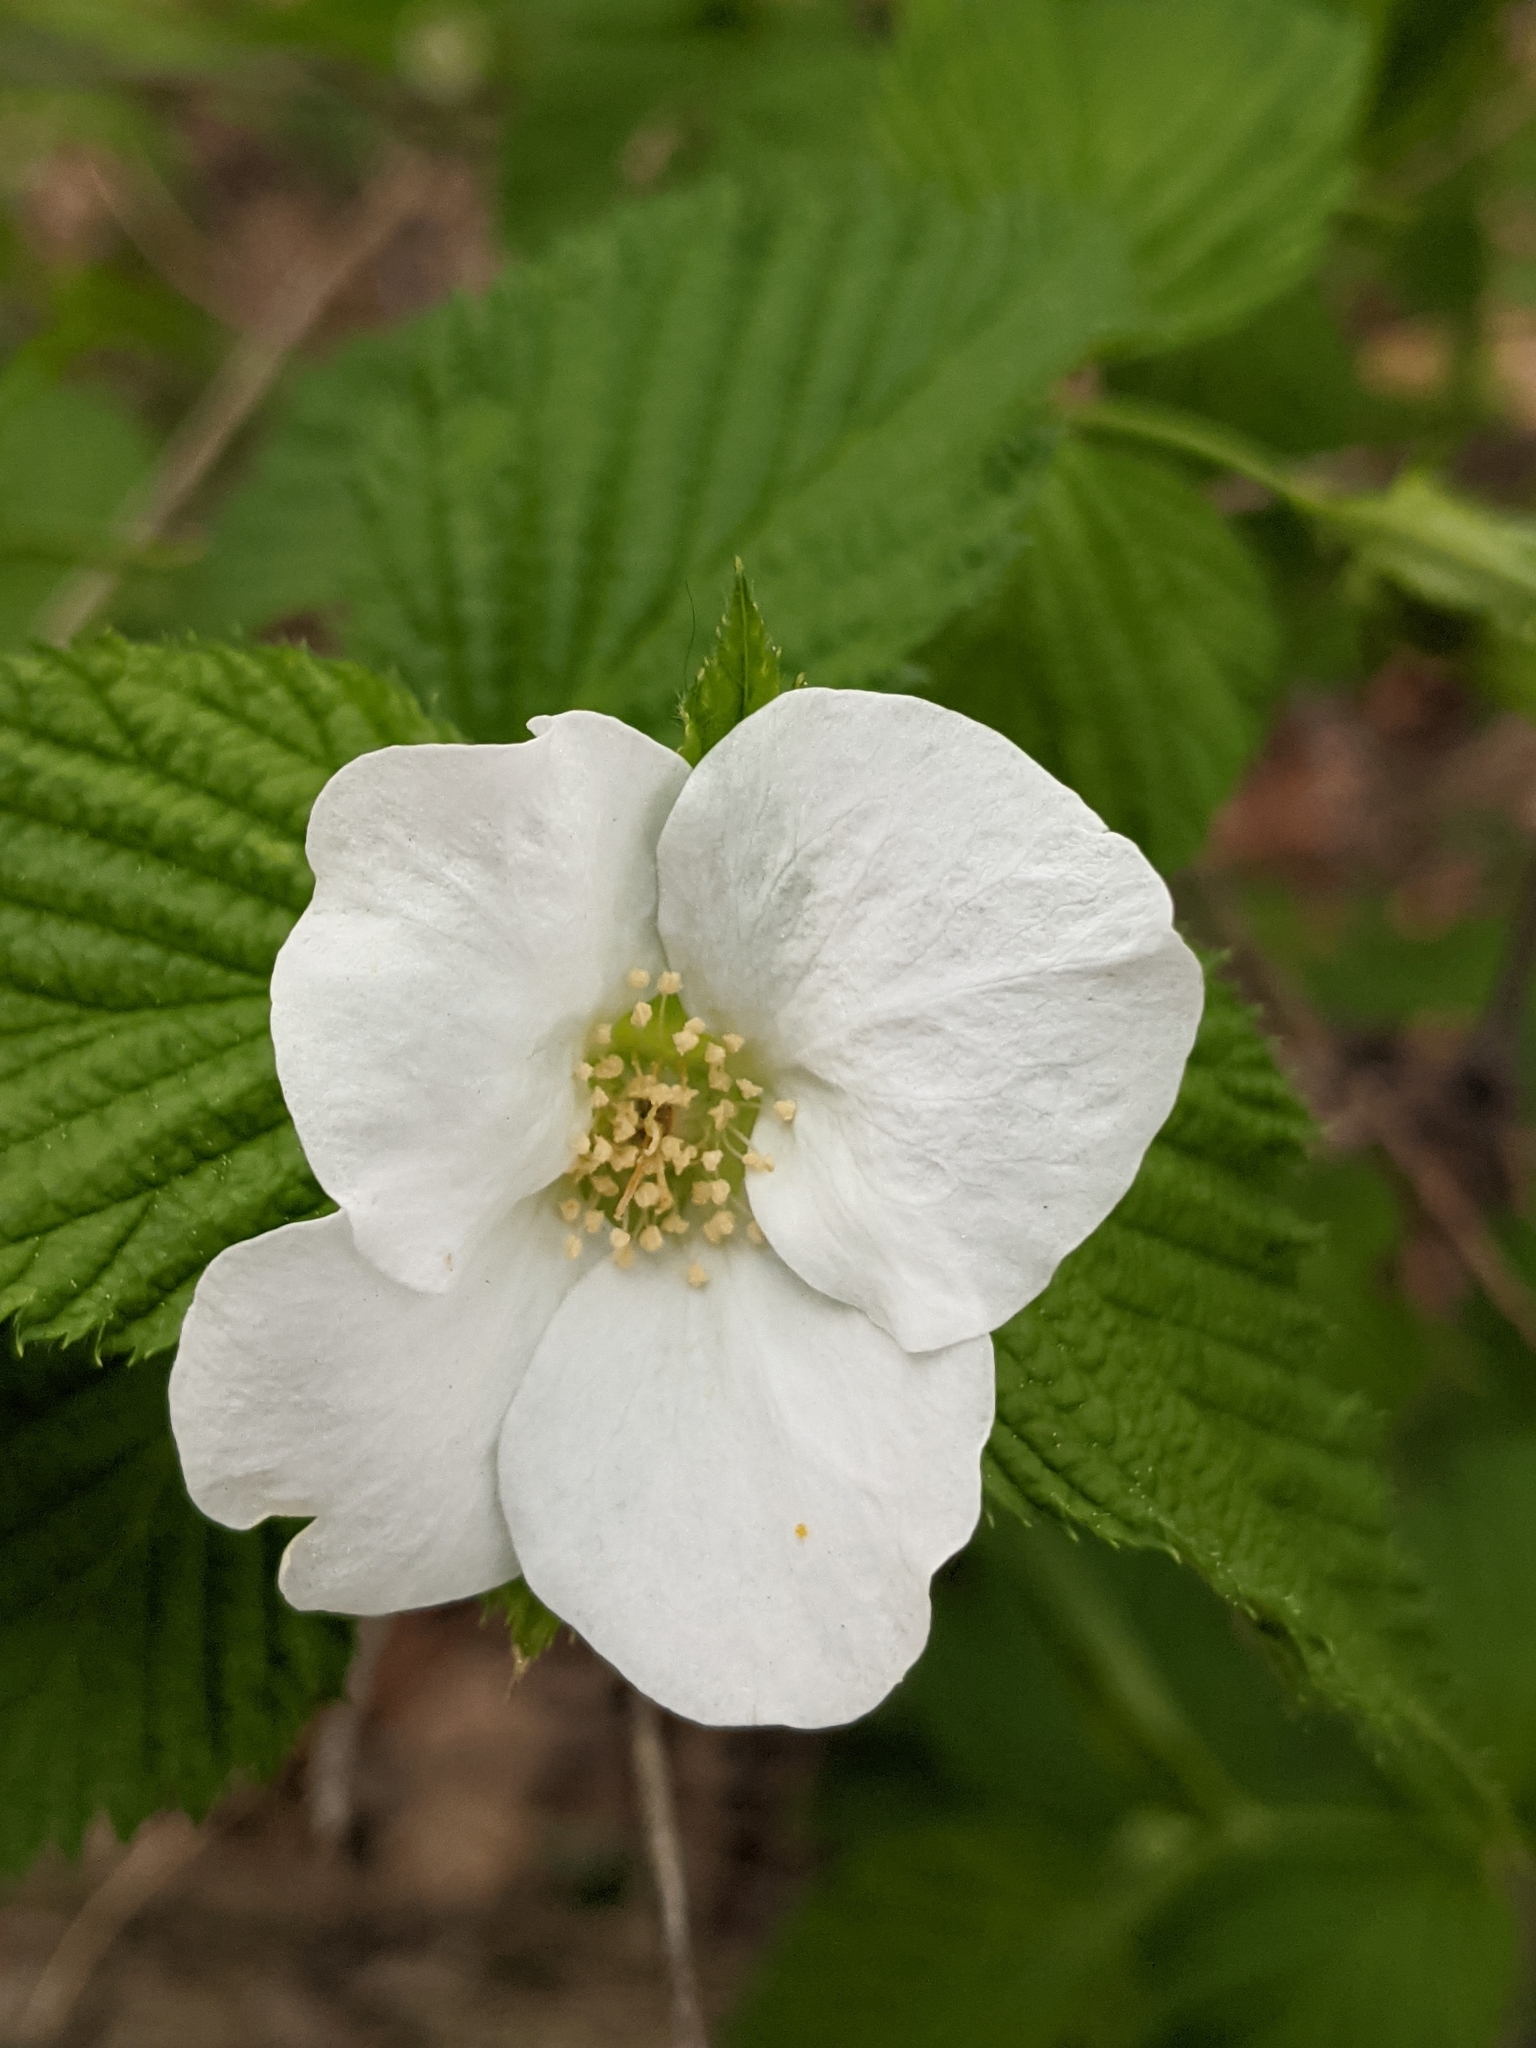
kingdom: Plantae
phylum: Tracheophyta
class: Magnoliopsida
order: Rosales
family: Rosaceae
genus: Rhodotypos
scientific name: Rhodotypos scandens
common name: Jetbead
